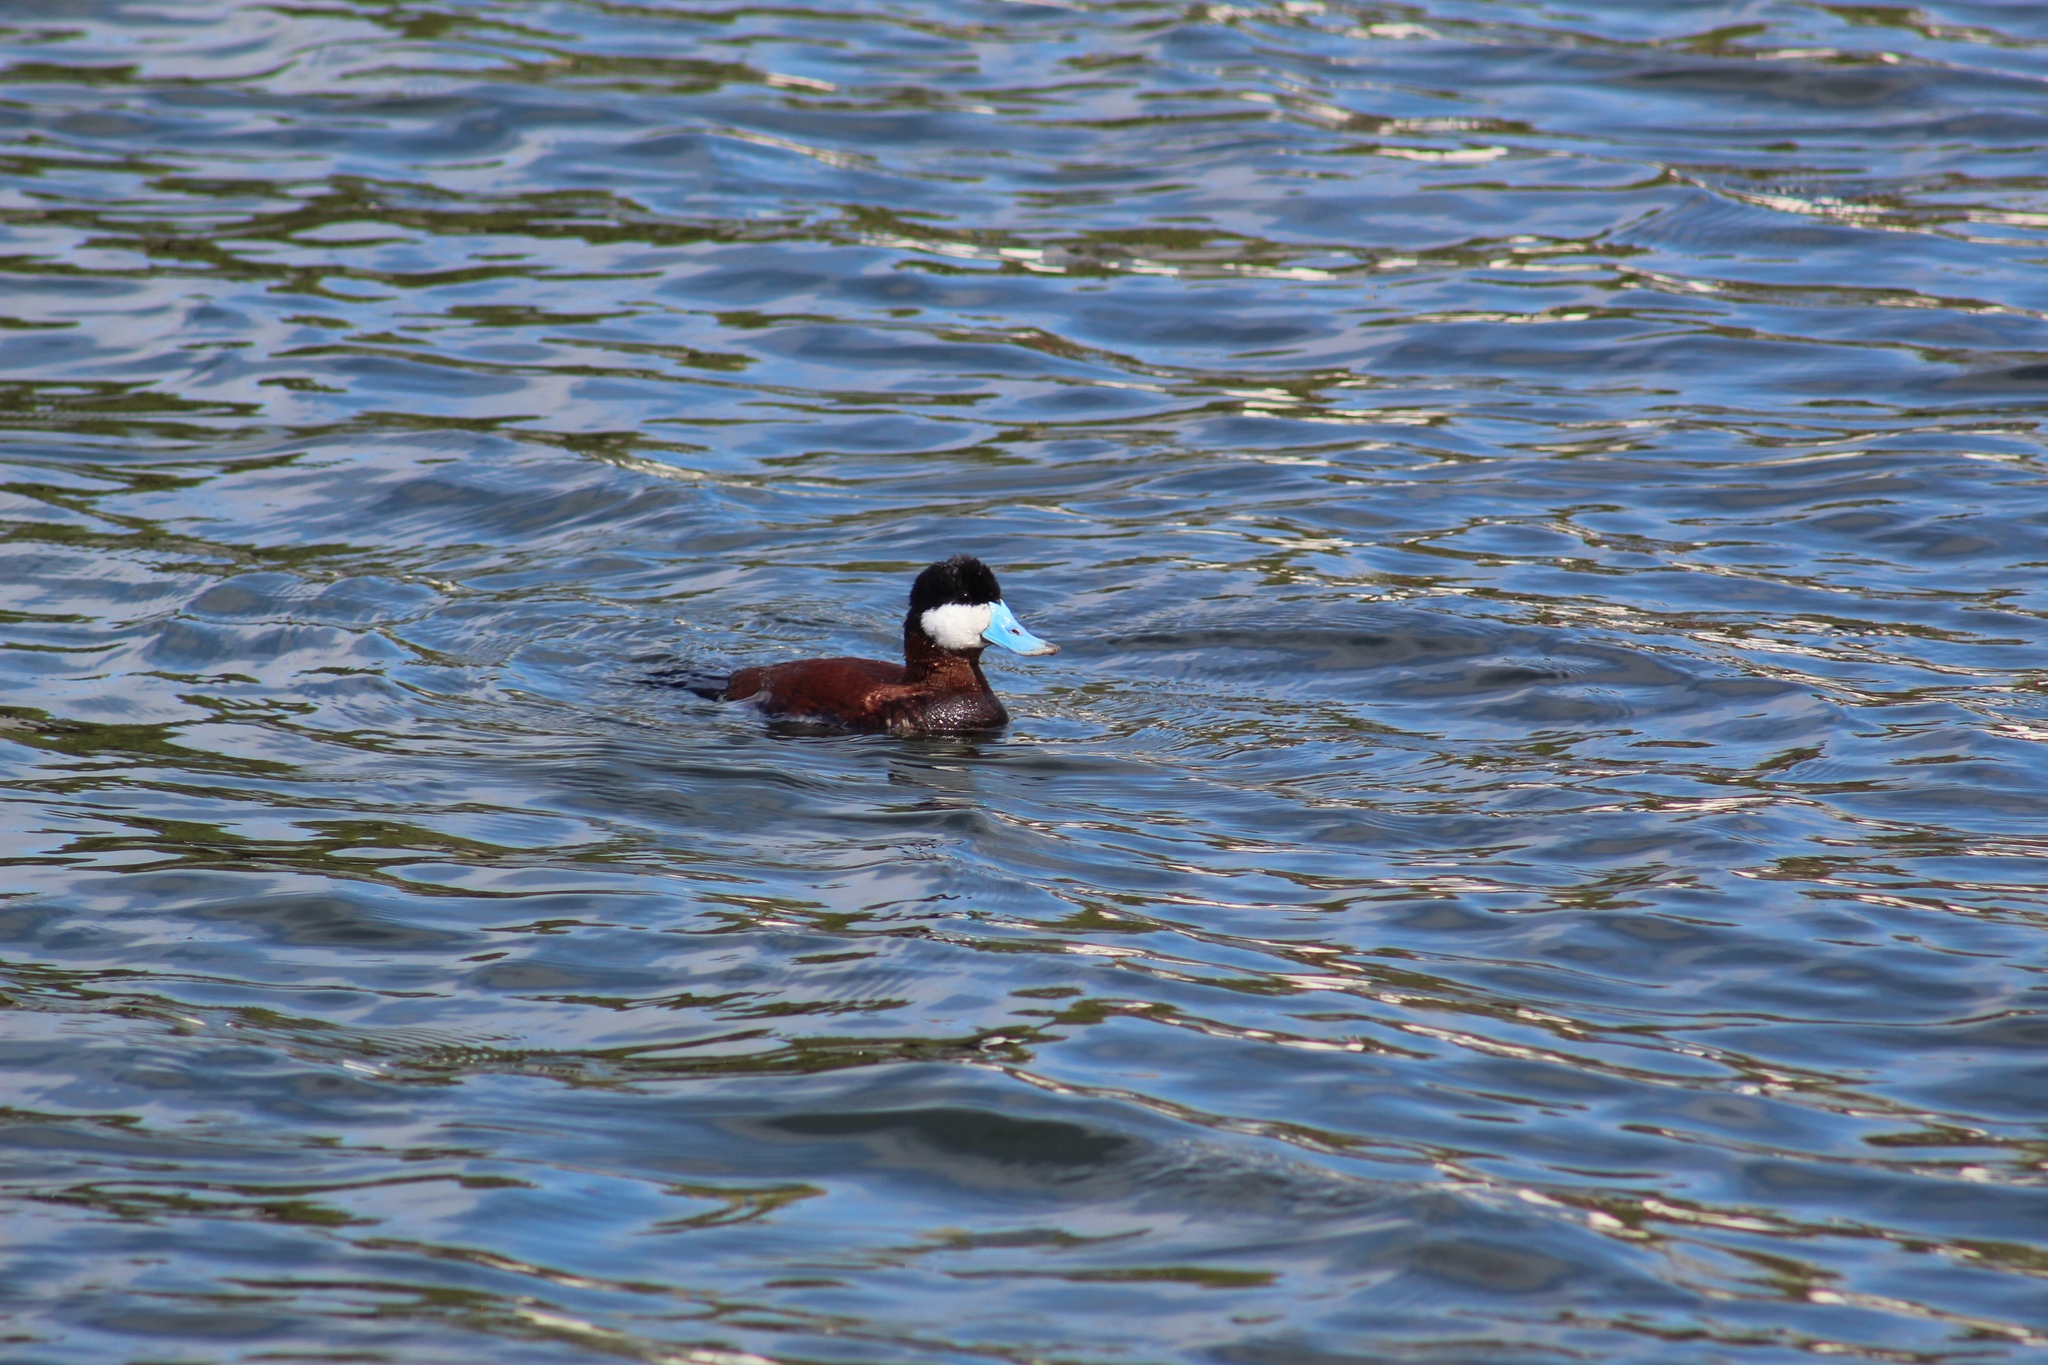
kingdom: Animalia
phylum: Chordata
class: Aves
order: Anseriformes
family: Anatidae
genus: Oxyura
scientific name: Oxyura jamaicensis
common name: Ruddy duck
